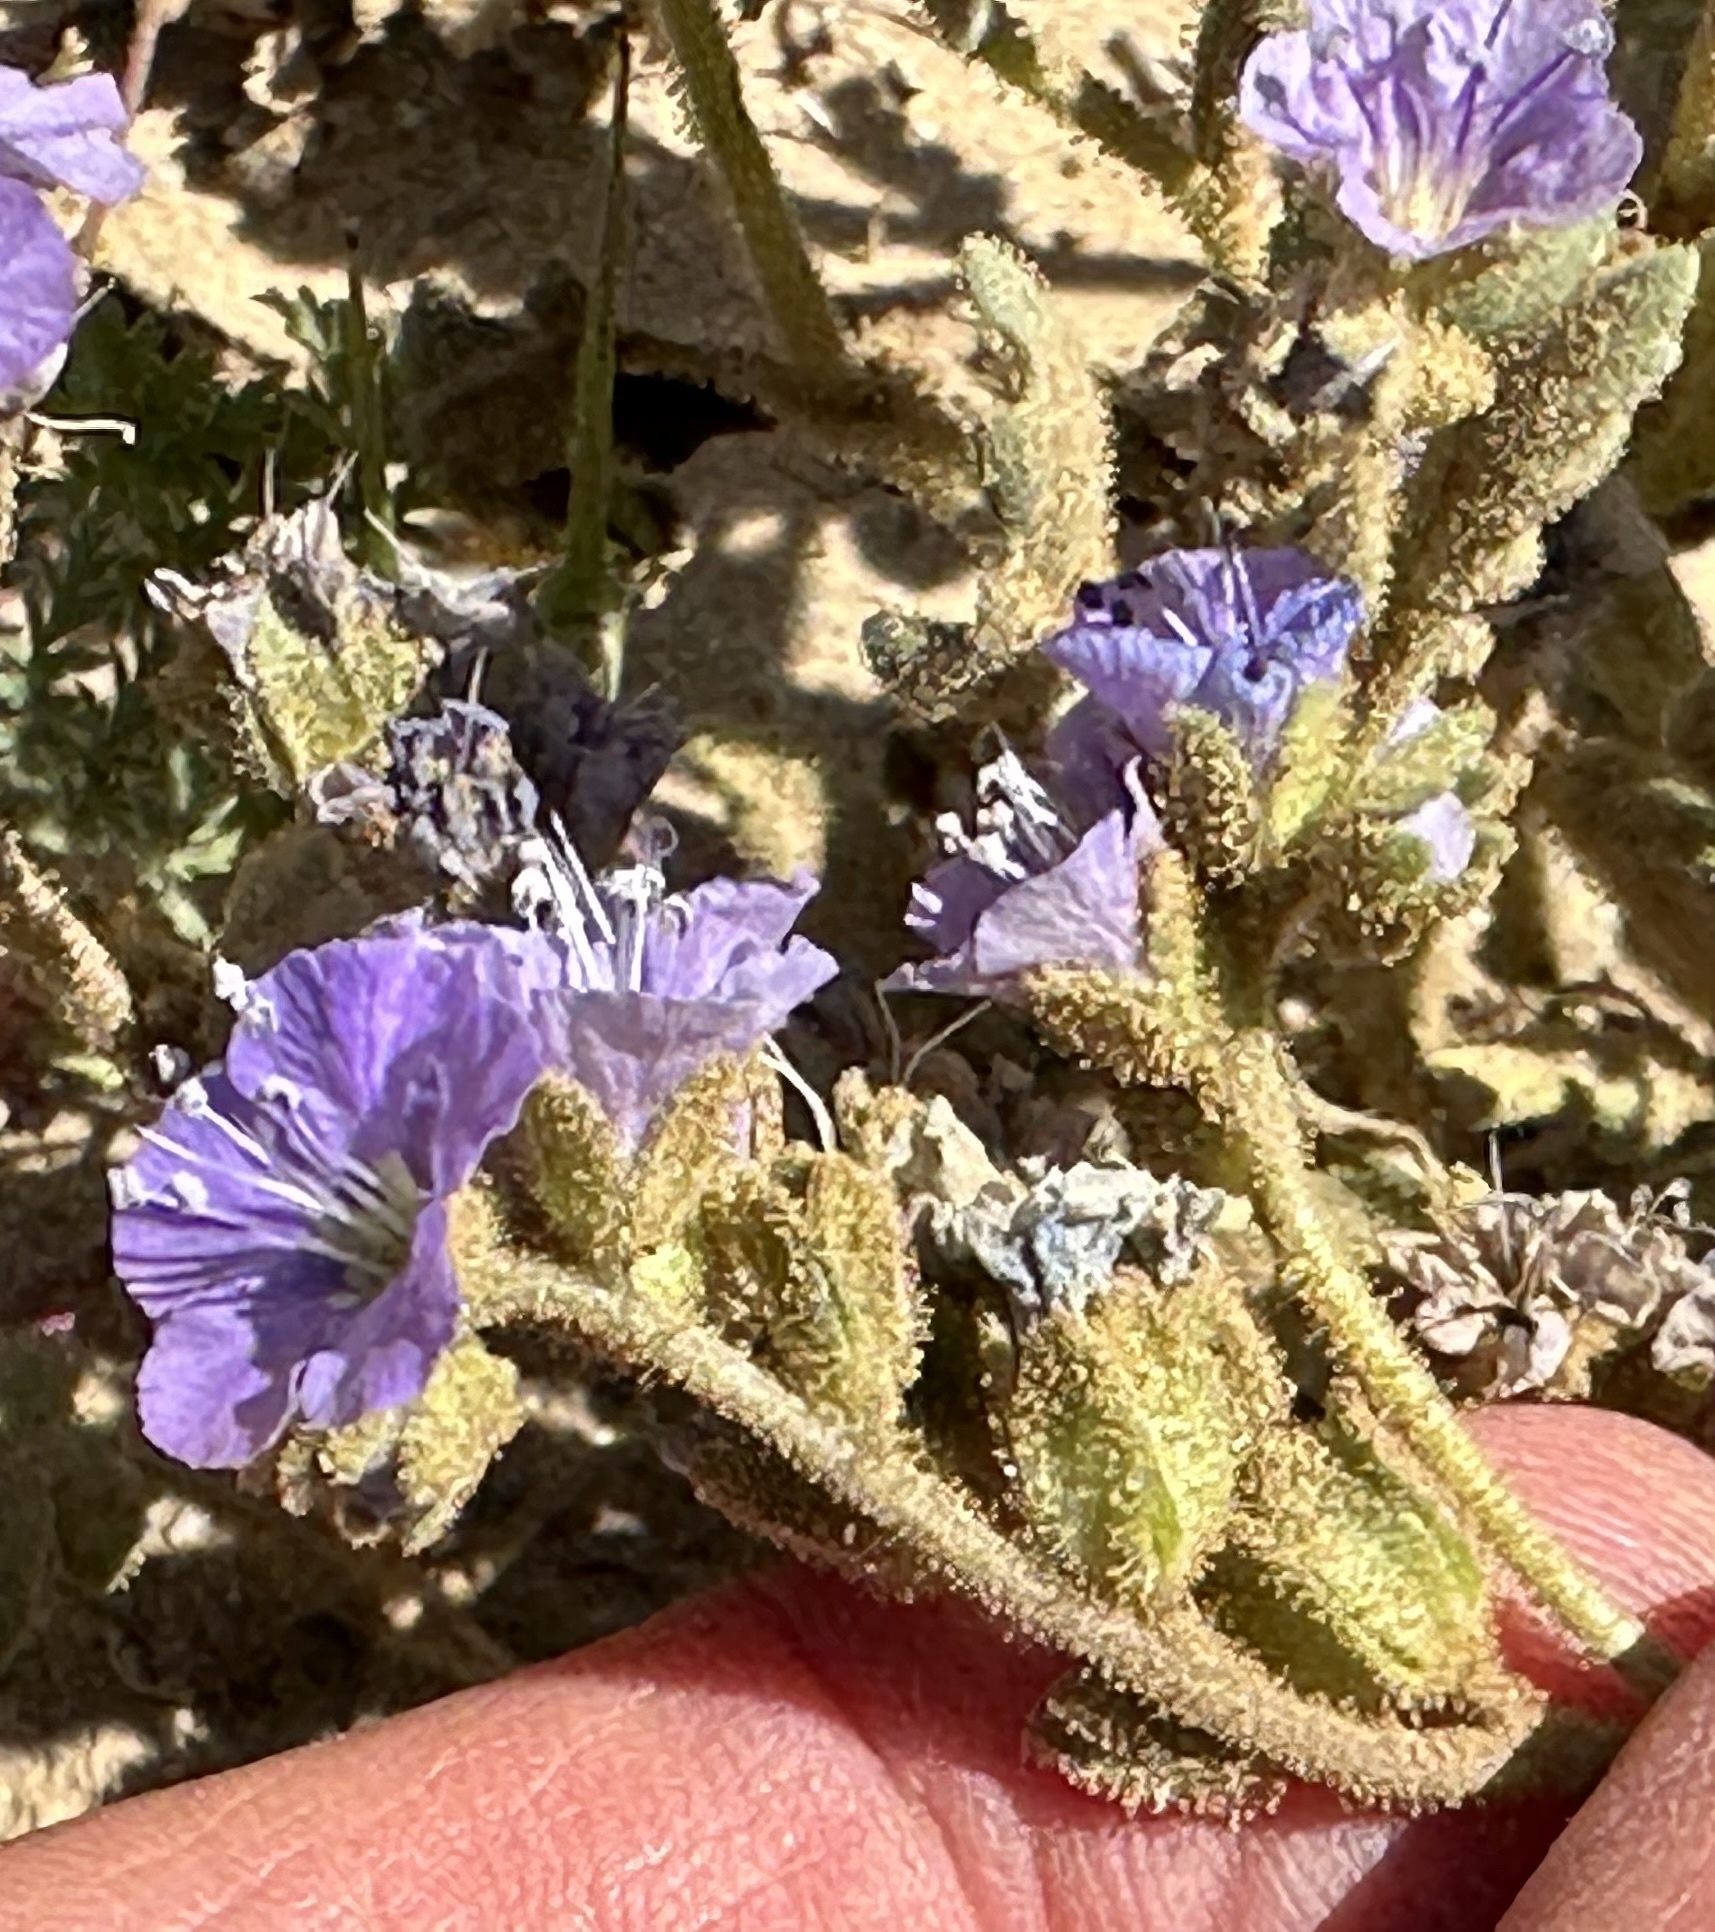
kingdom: Plantae
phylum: Tracheophyta
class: Magnoliopsida
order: Boraginales
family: Hydrophyllaceae
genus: Phacelia
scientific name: Phacelia ciliata
